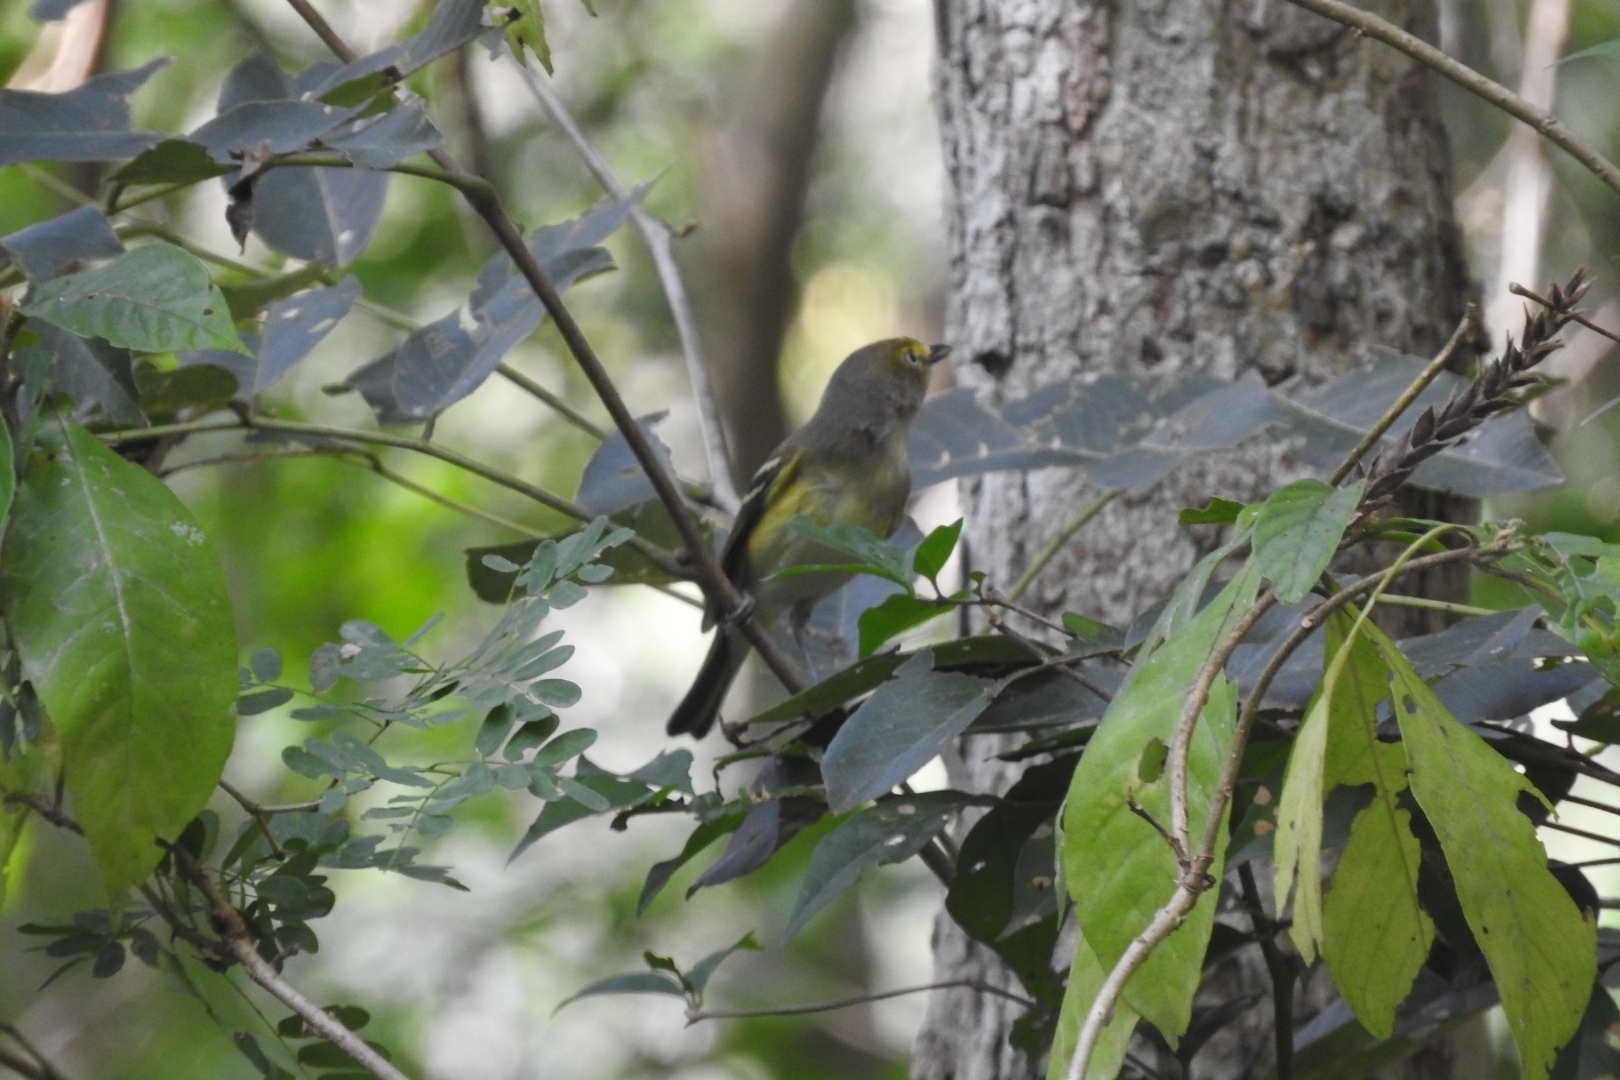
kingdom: Animalia
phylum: Chordata
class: Aves
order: Passeriformes
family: Vireonidae
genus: Vireo
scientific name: Vireo griseus
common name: White-eyed vireo
